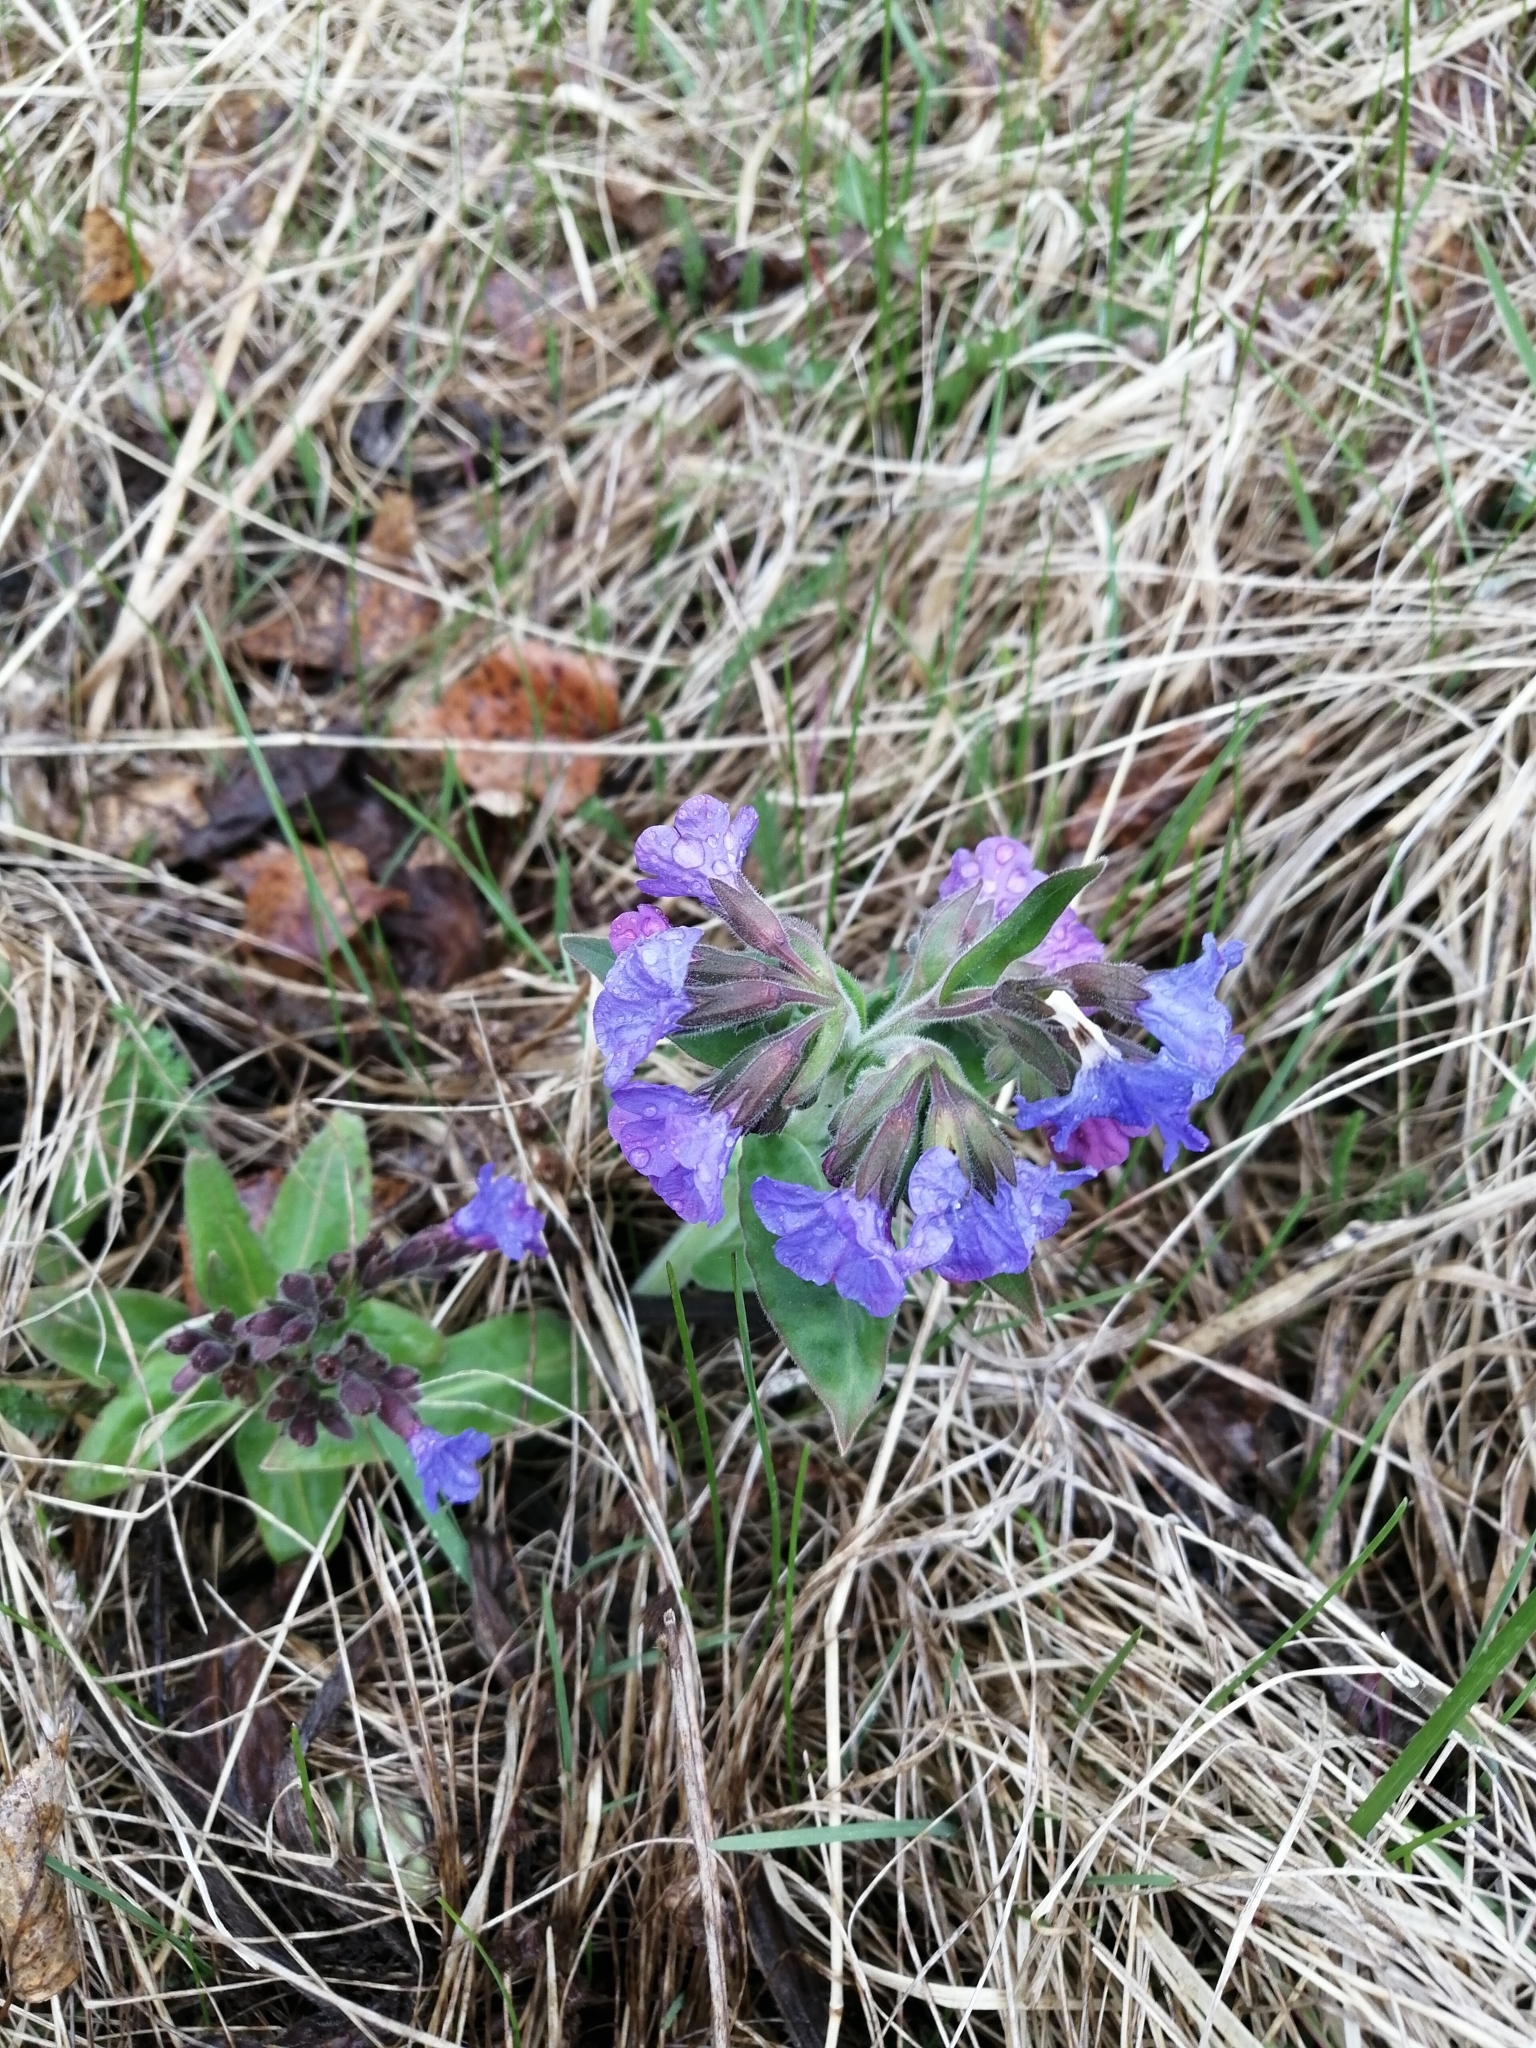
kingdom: Plantae
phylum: Tracheophyta
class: Magnoliopsida
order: Boraginales
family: Boraginaceae
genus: Pulmonaria
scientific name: Pulmonaria mollis
